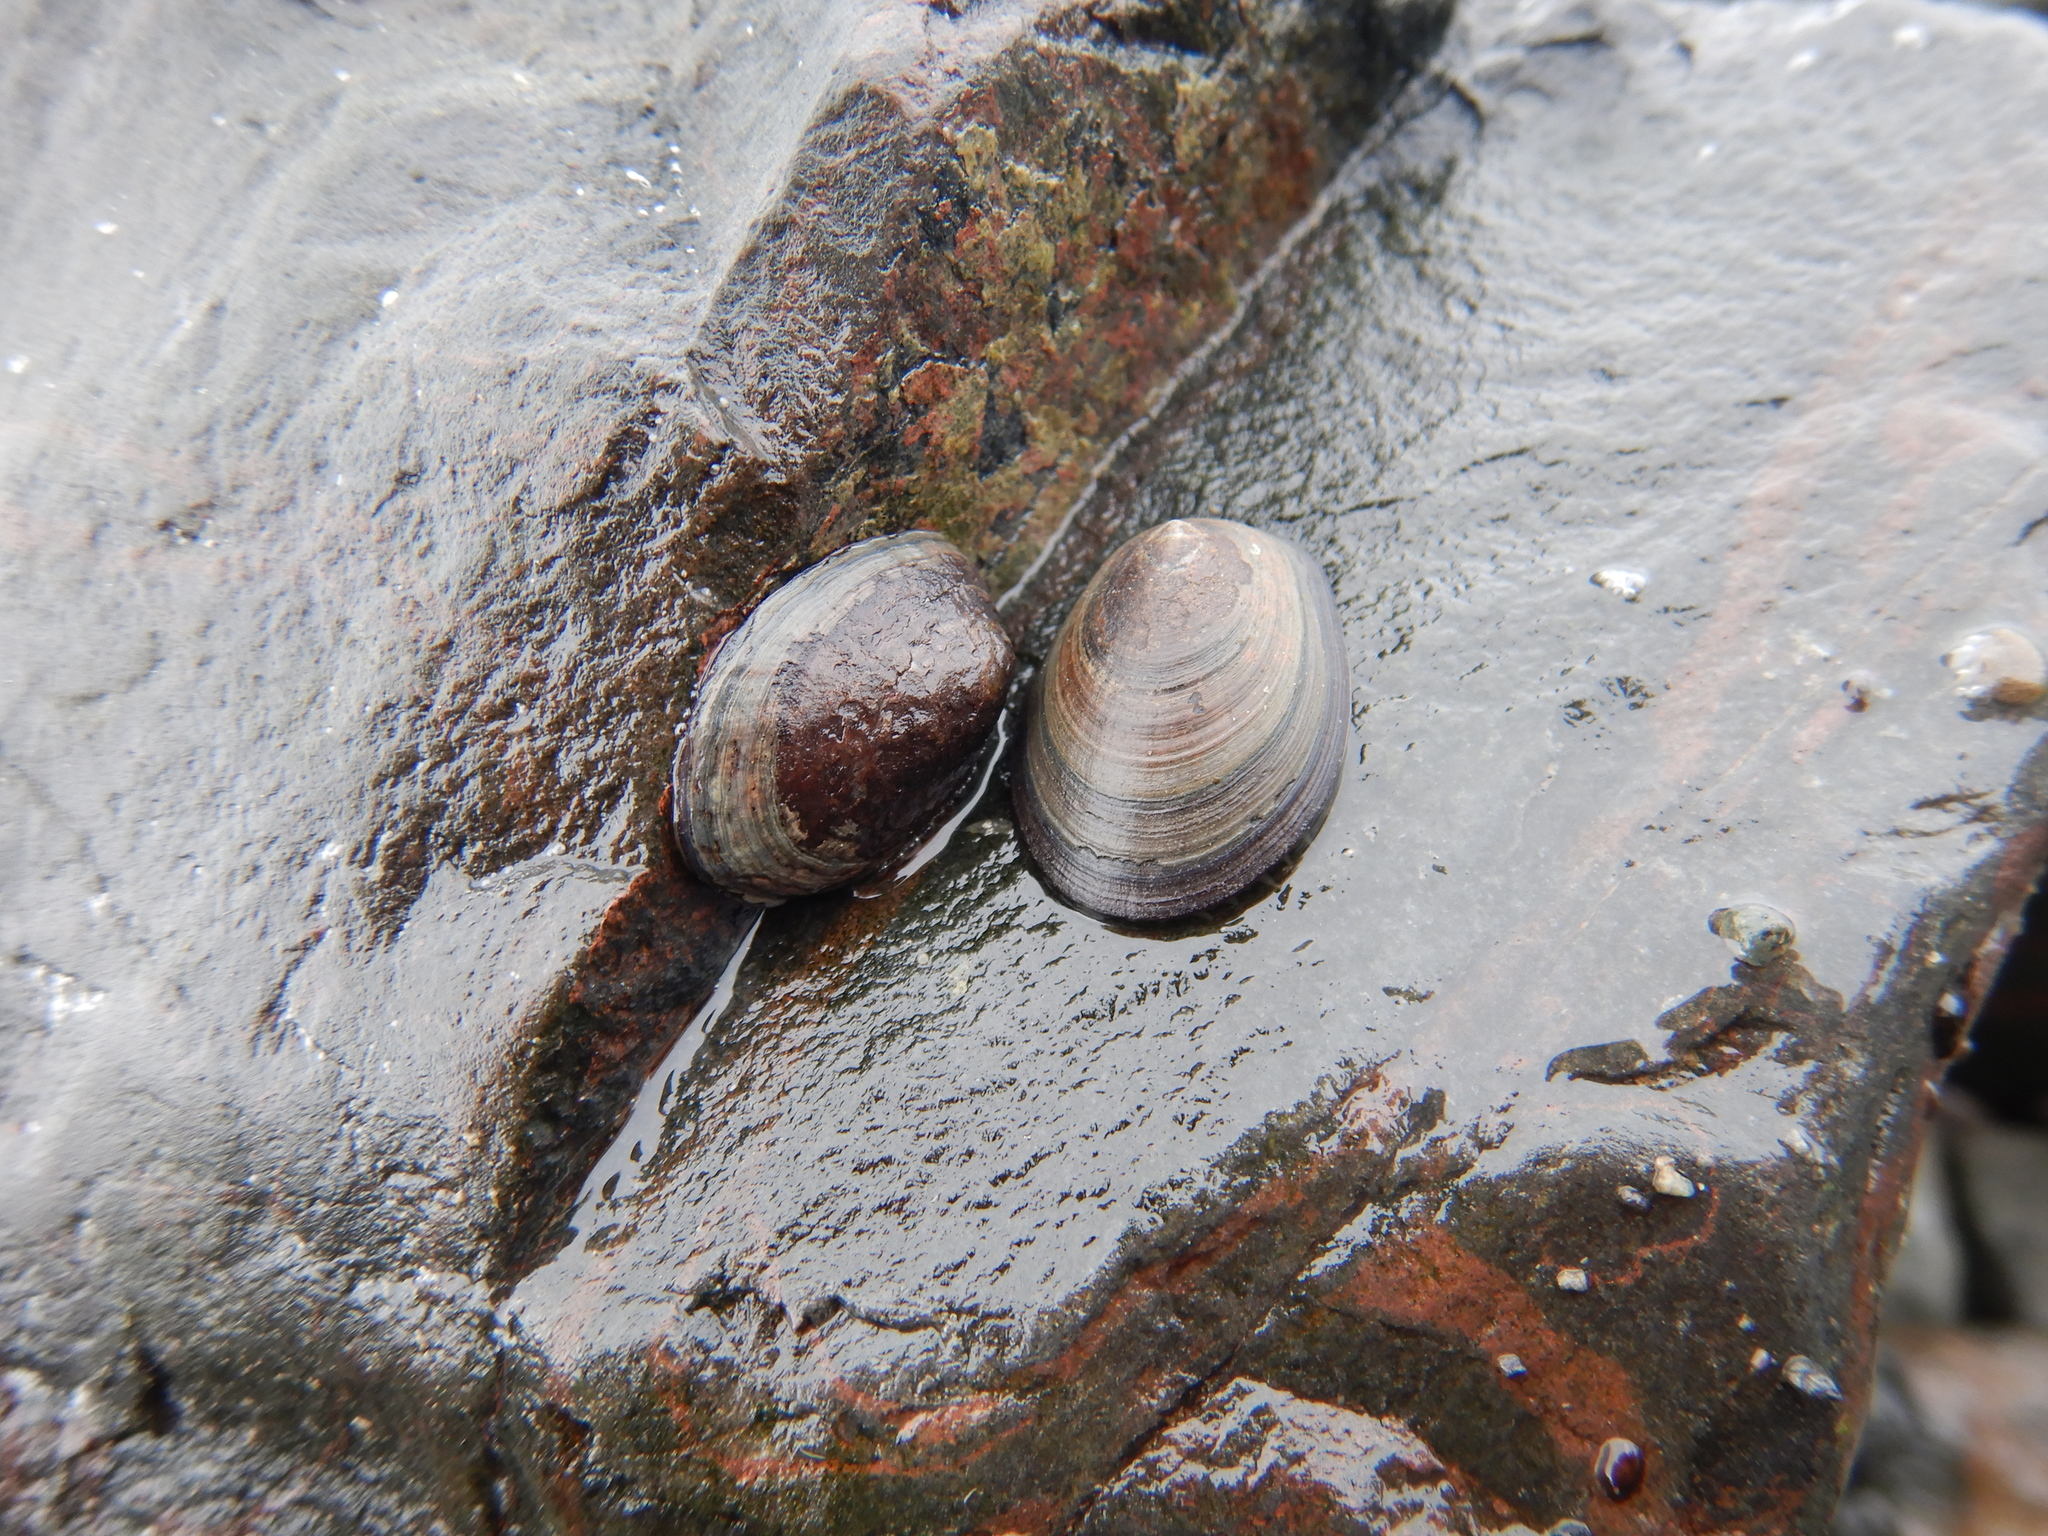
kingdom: Animalia
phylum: Mollusca
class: Gastropoda
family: Nacellidae
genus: Nacella
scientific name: Nacella concinna
